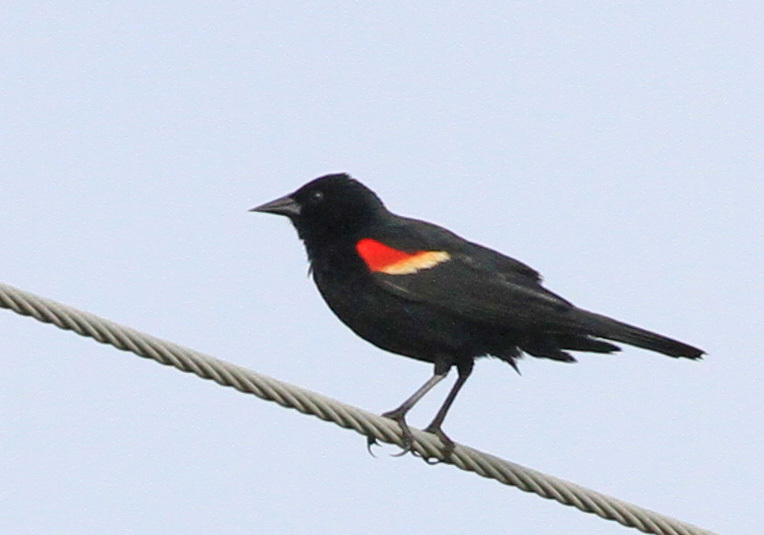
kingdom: Animalia
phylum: Chordata
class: Aves
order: Passeriformes
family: Icteridae
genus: Agelaius
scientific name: Agelaius phoeniceus
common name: Red-winged blackbird
